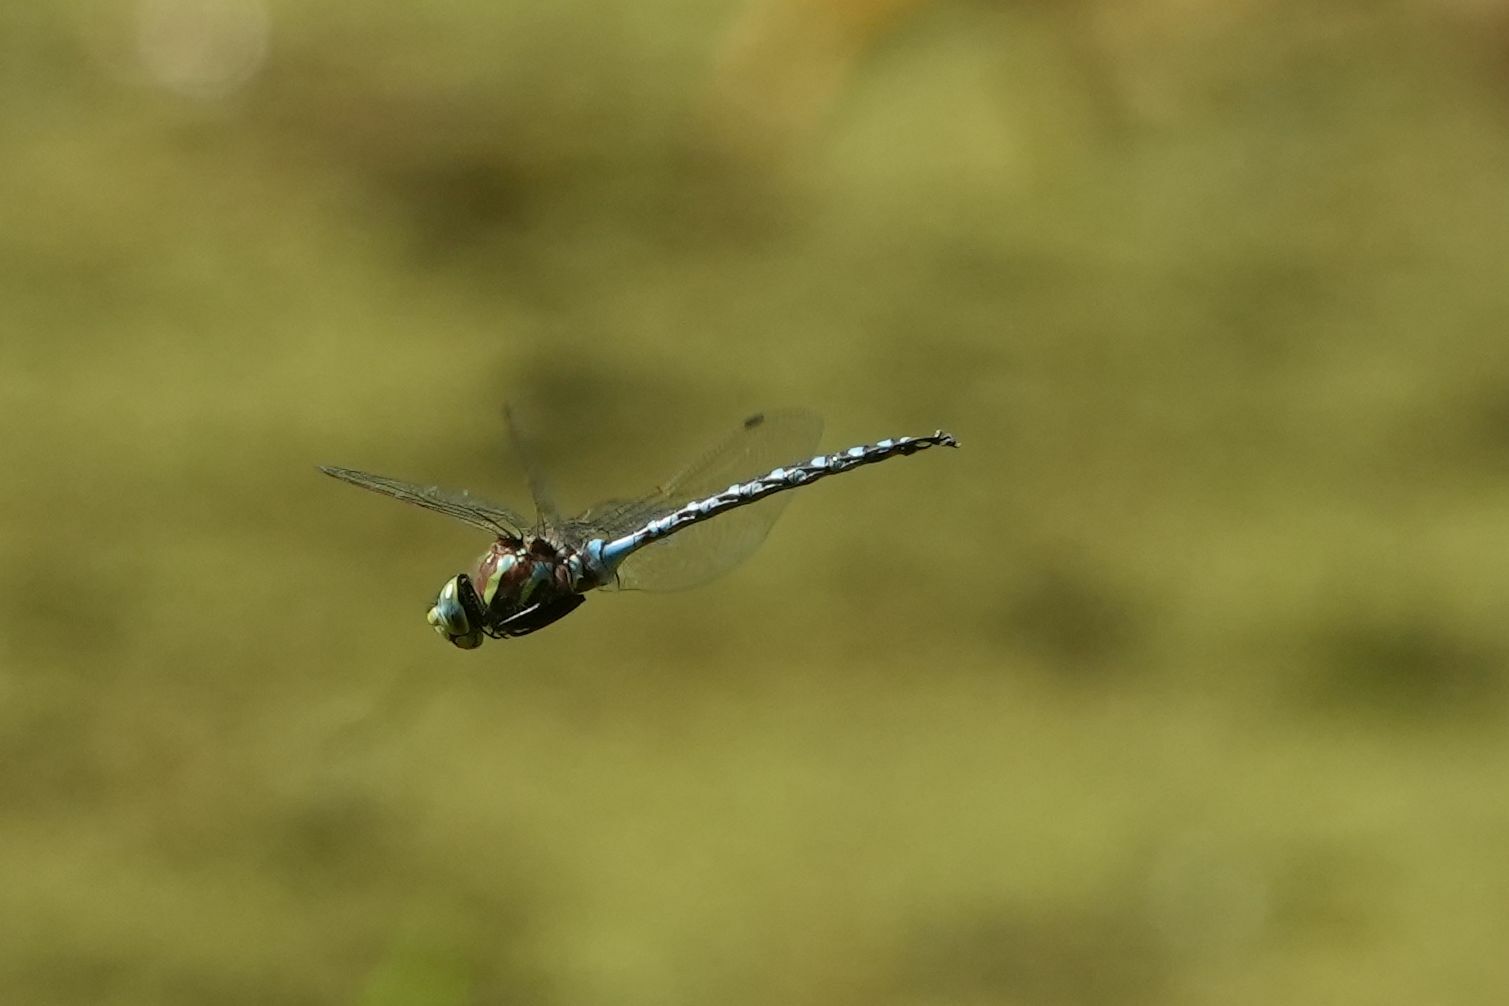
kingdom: Animalia
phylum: Arthropoda
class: Insecta
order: Odonata
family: Aeshnidae
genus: Aeshna
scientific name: Aeshna constricta
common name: Lance-tipped darner
